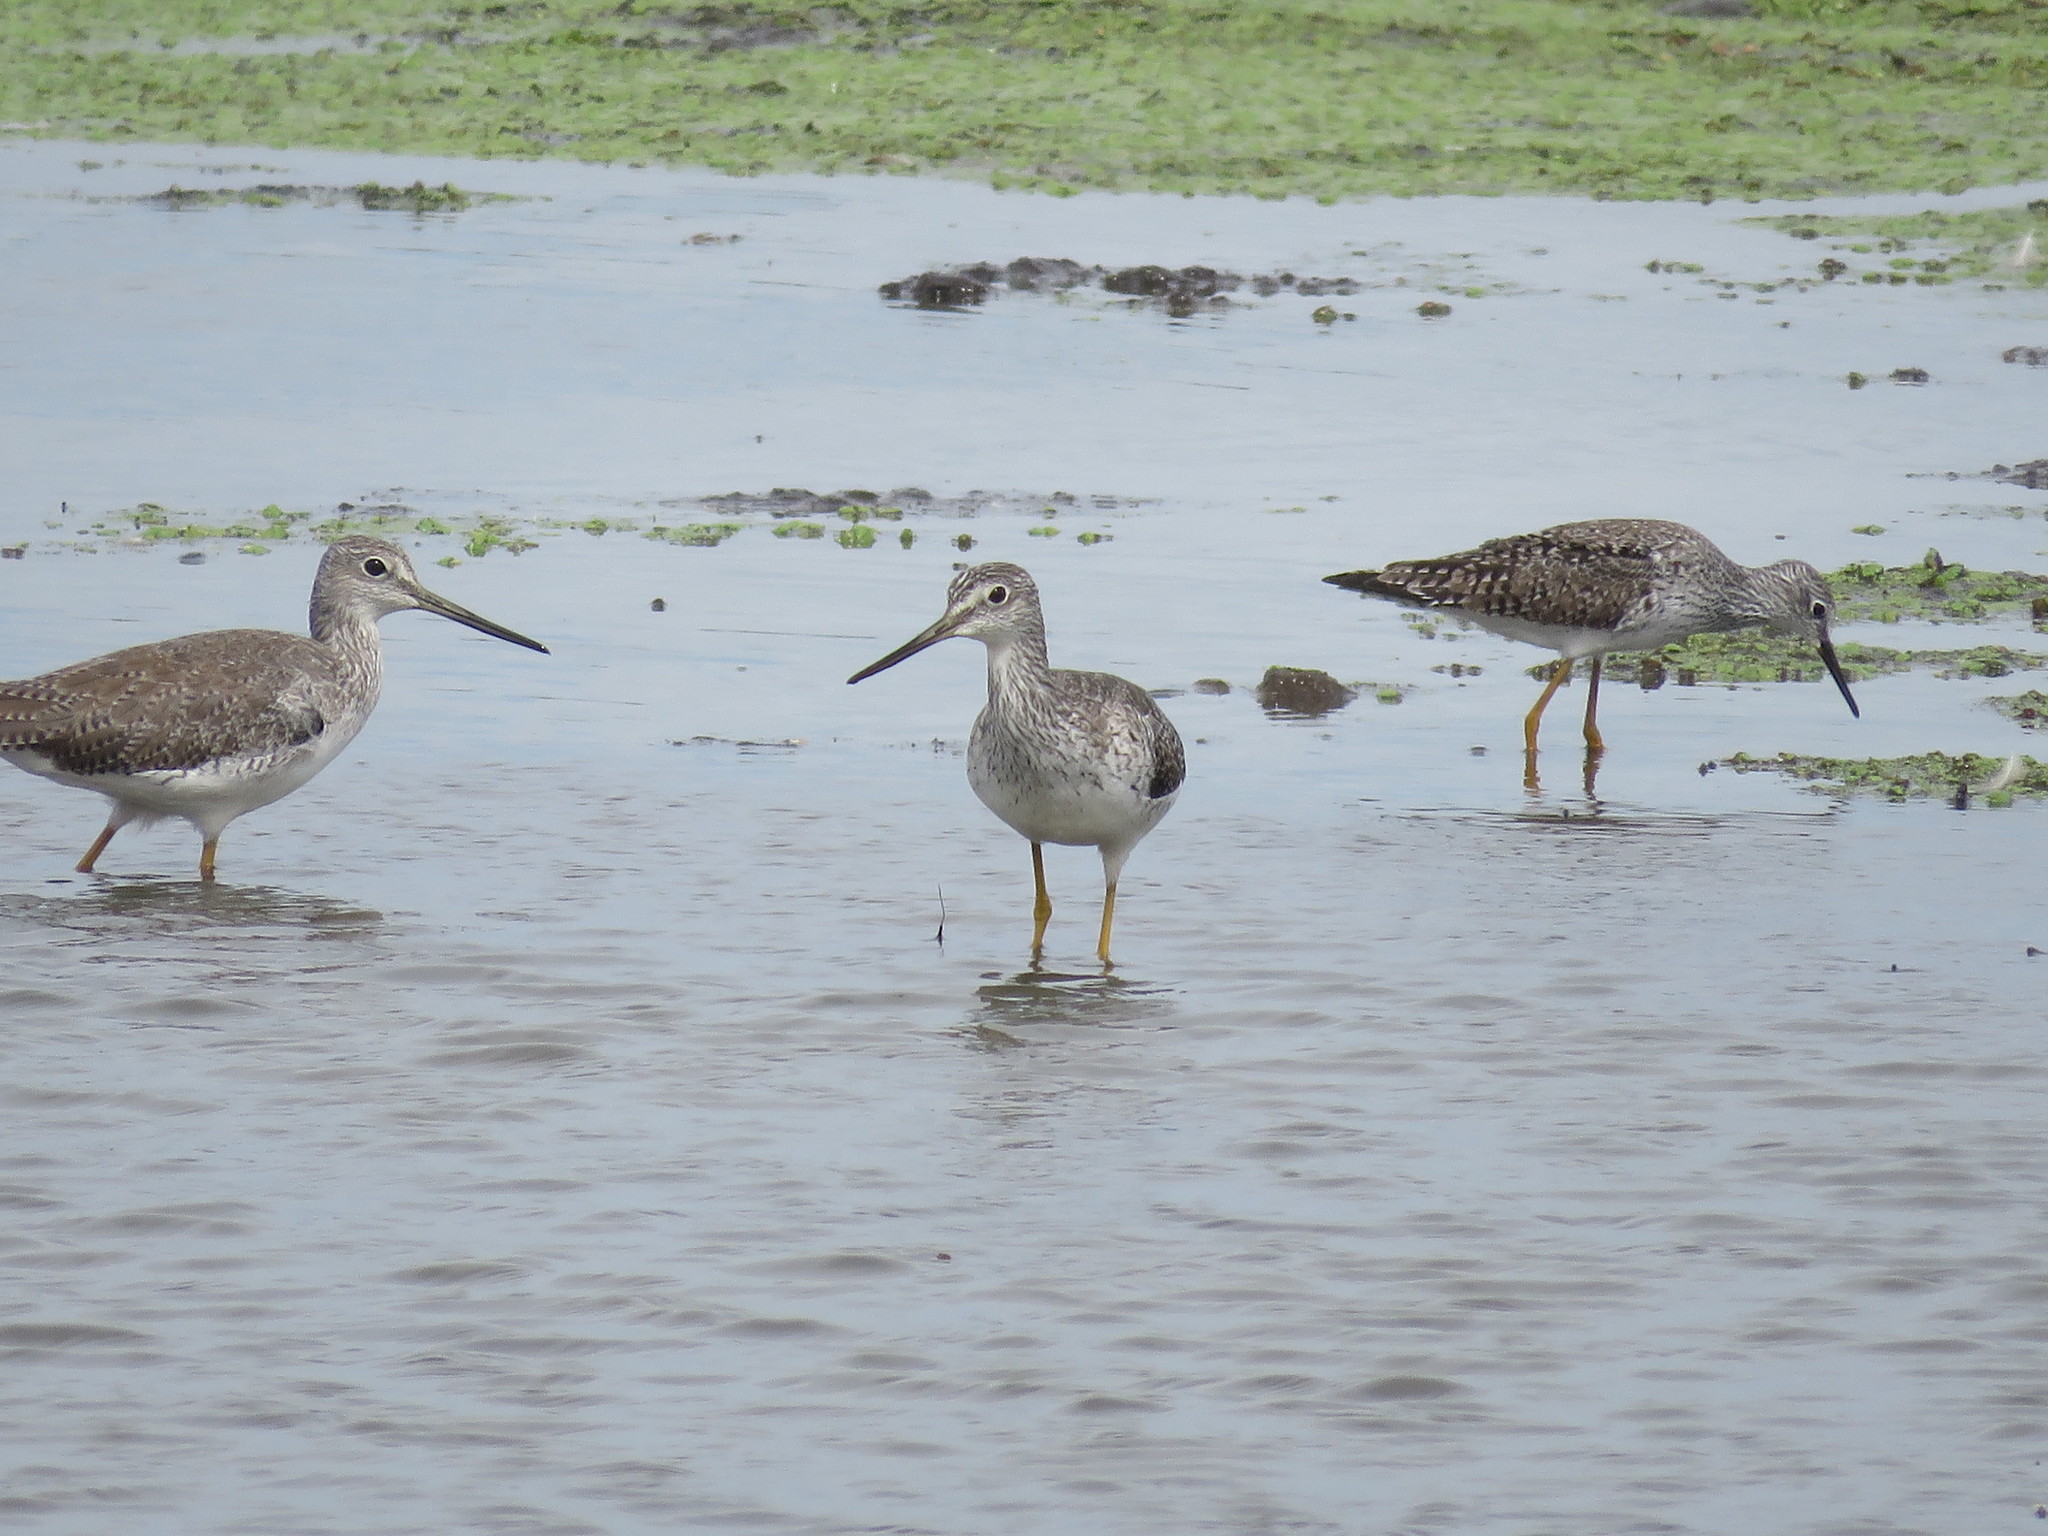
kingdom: Animalia
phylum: Chordata
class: Aves
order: Charadriiformes
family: Scolopacidae
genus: Tringa
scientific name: Tringa melanoleuca
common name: Greater yellowlegs
